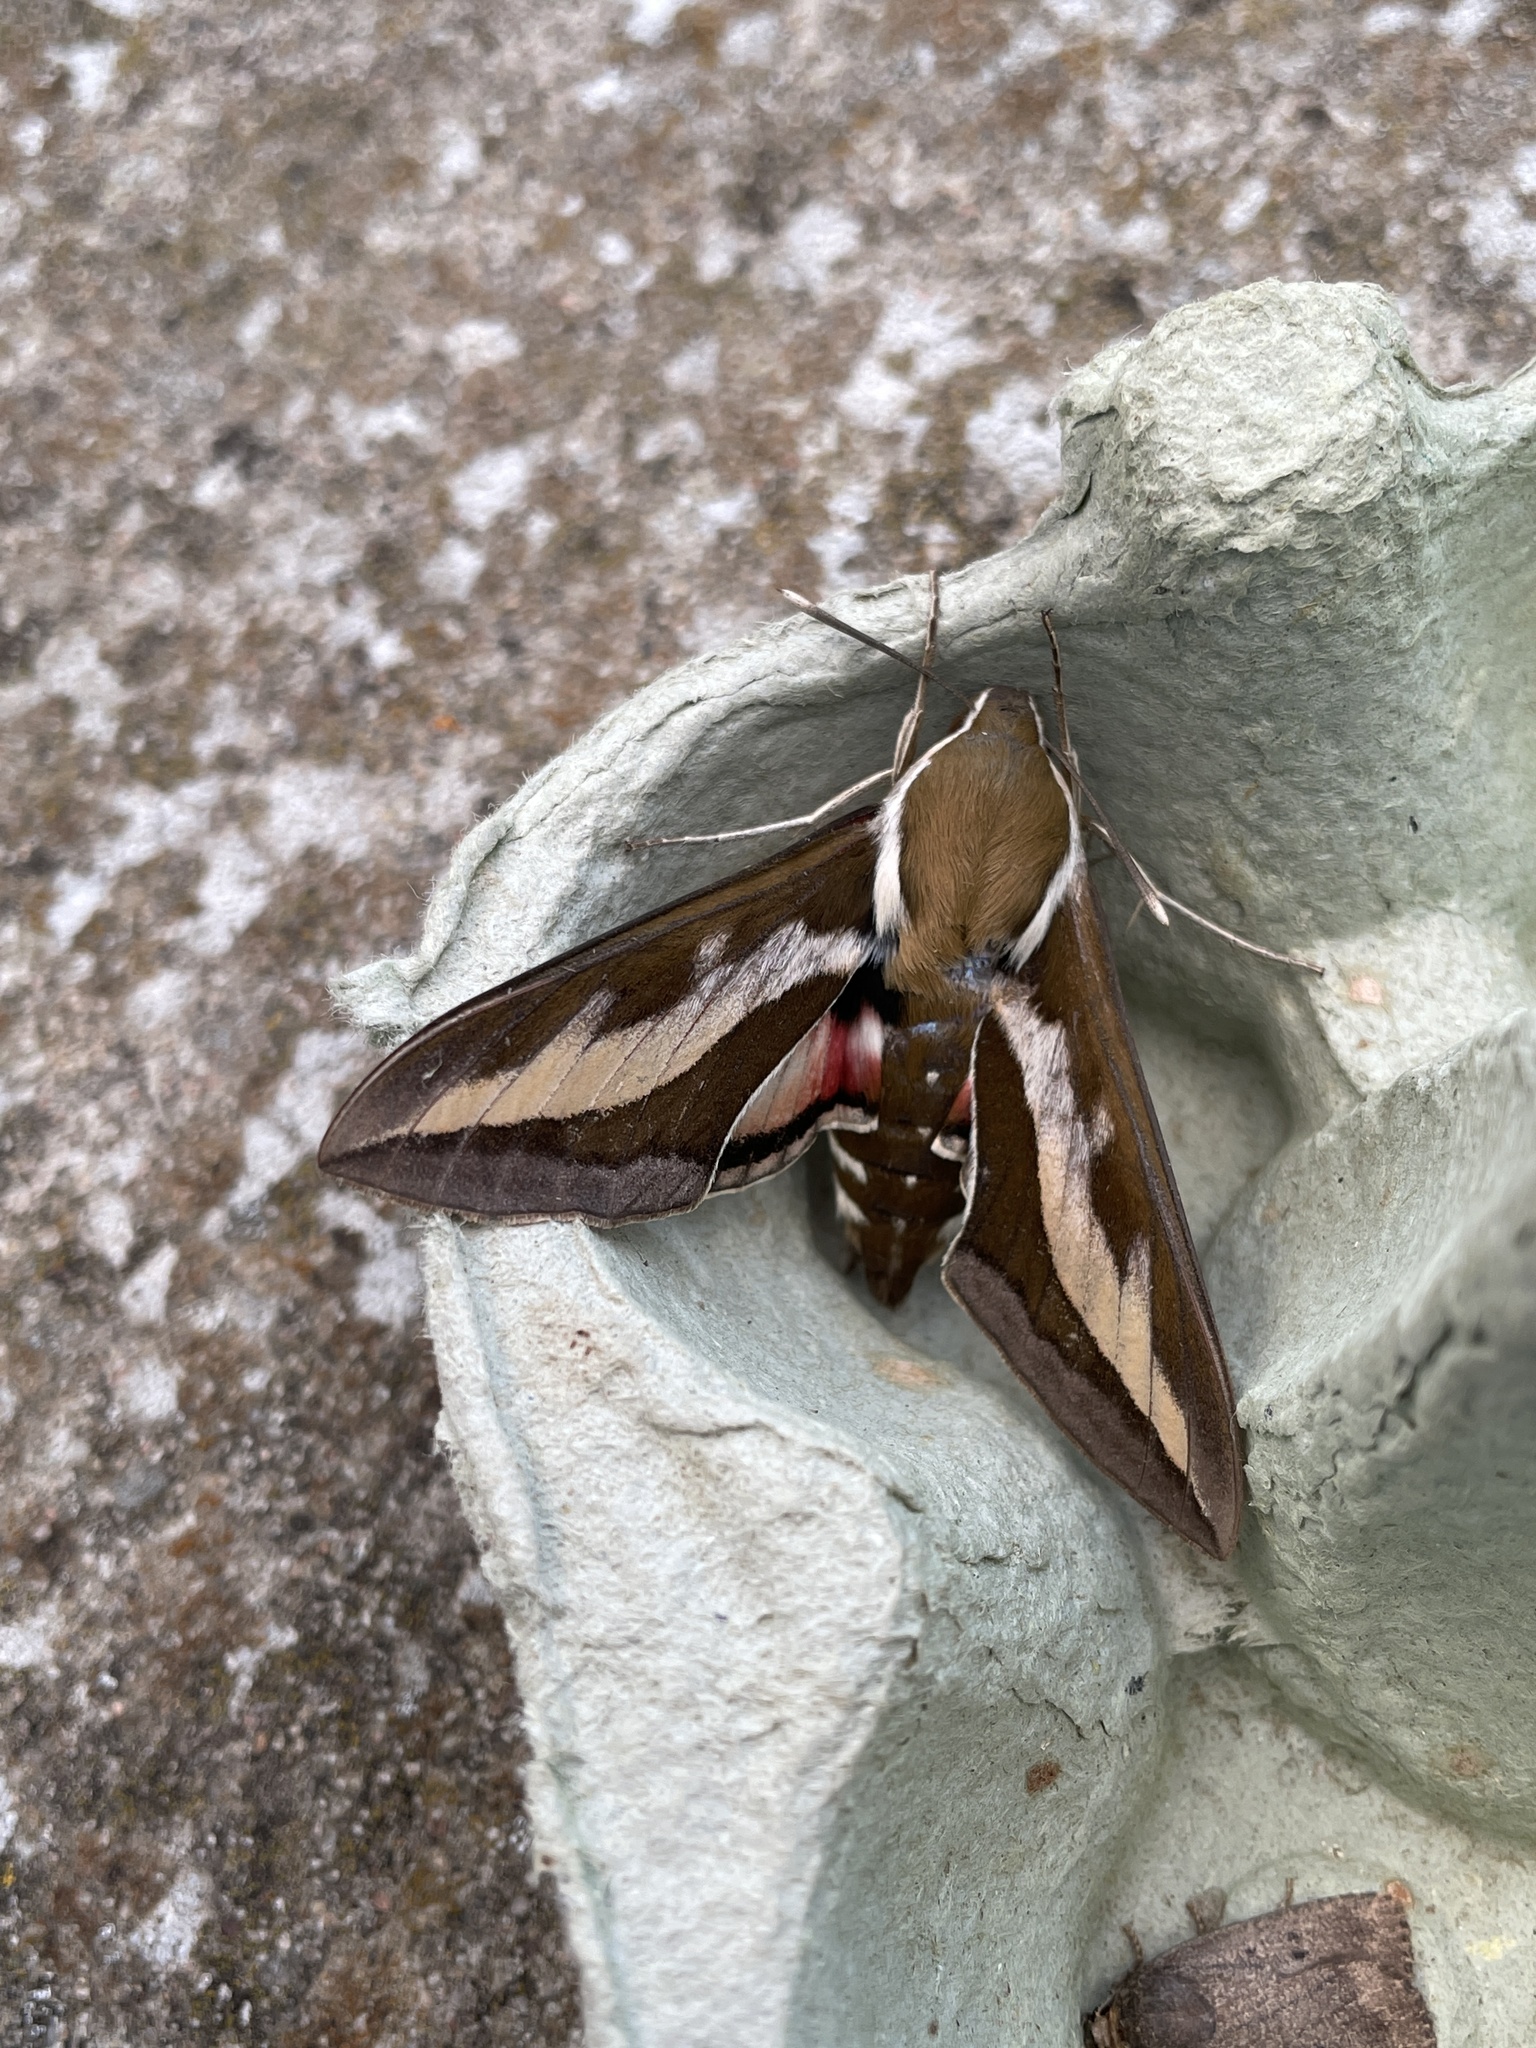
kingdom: Animalia
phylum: Arthropoda
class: Insecta
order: Lepidoptera
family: Sphingidae
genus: Hyles
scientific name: Hyles gallii
